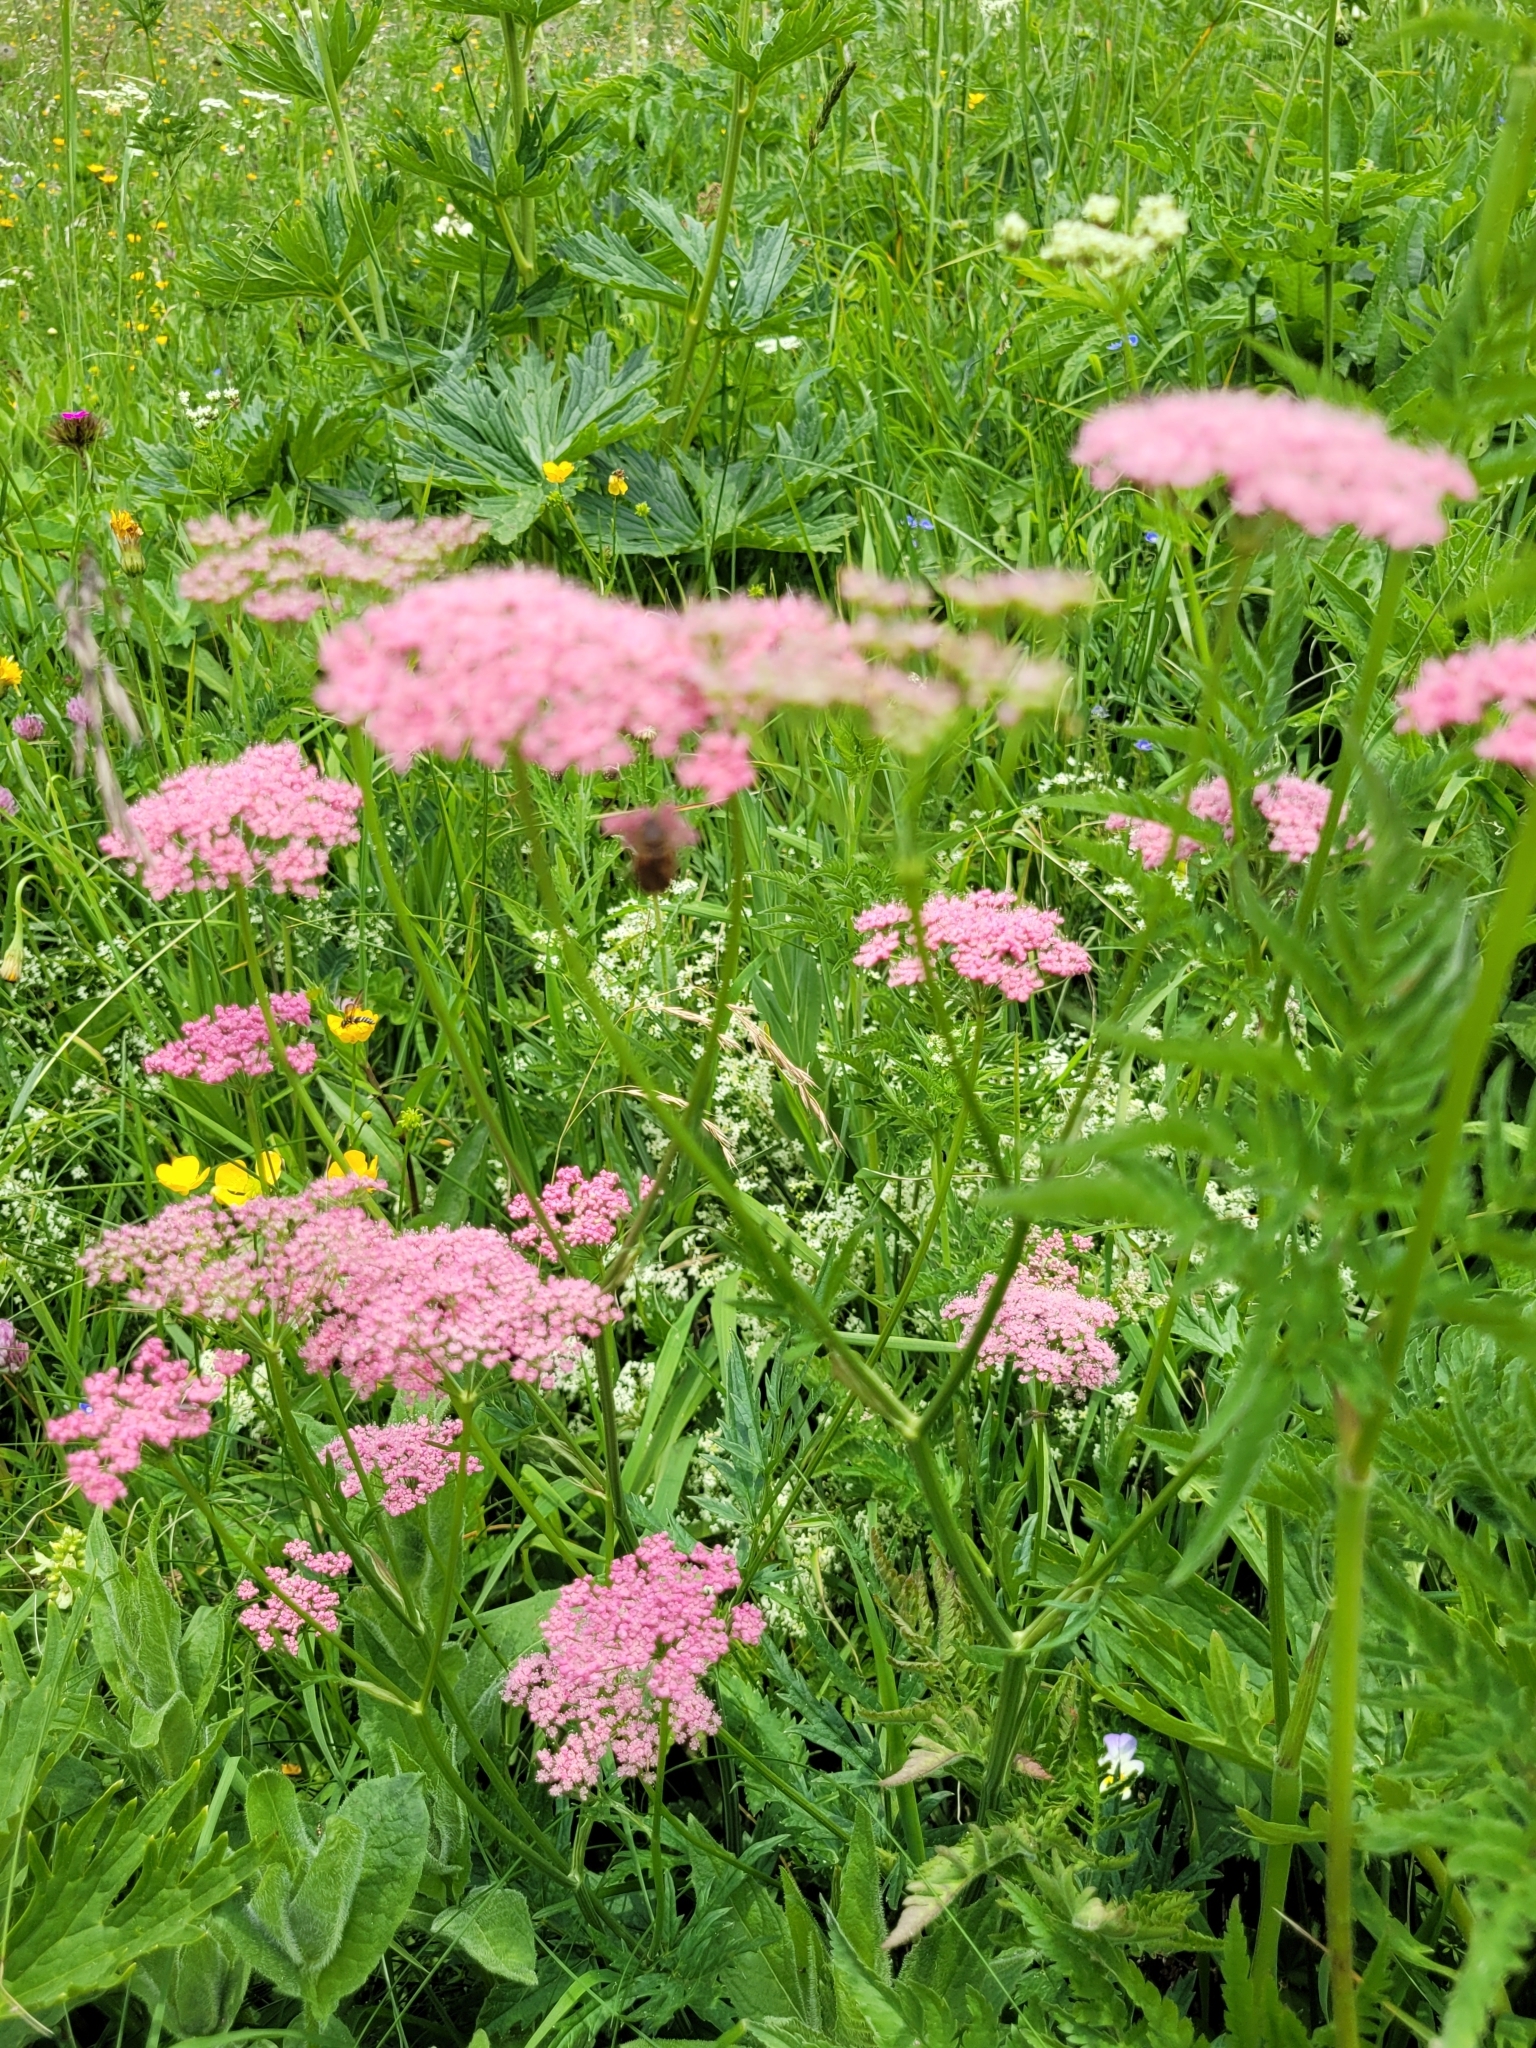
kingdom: Plantae
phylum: Tracheophyta
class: Magnoliopsida
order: Apiales
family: Apiaceae
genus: Pimpinella
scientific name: Pimpinella major
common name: Greater burnet-saxifrage
